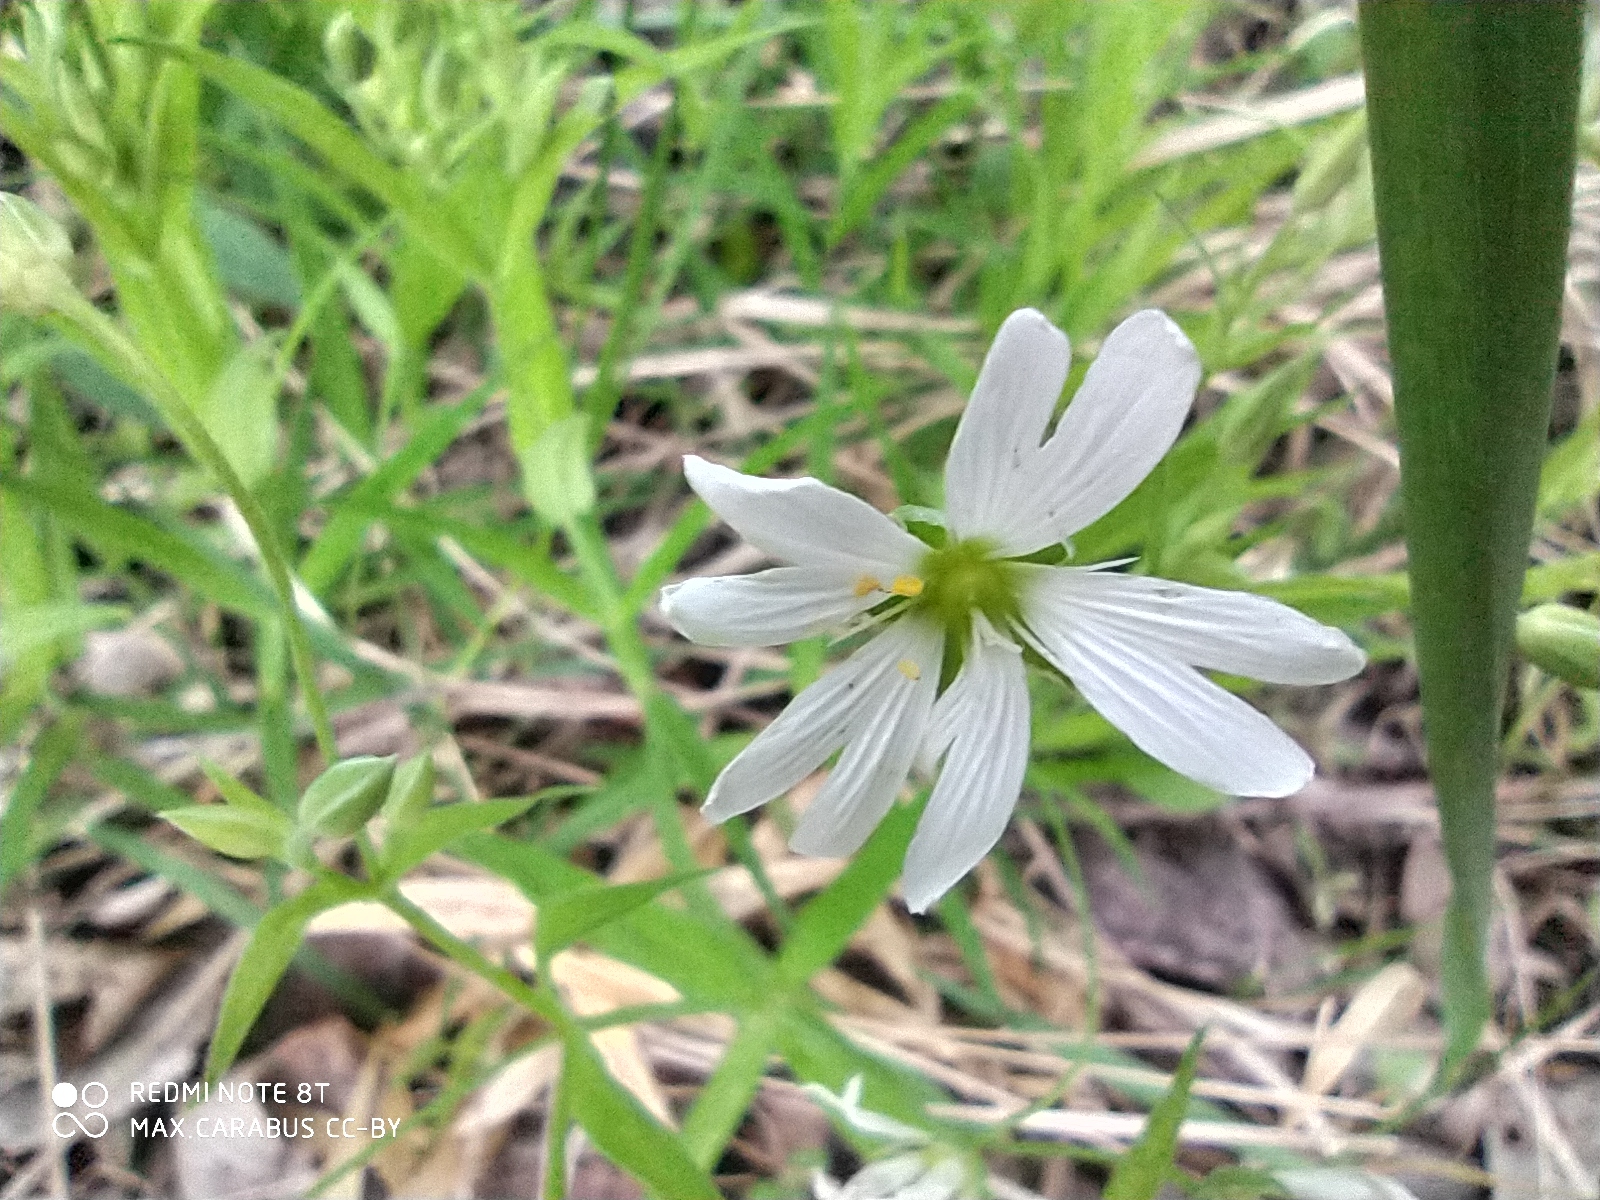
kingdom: Plantae
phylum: Tracheophyta
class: Magnoliopsida
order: Caryophyllales
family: Caryophyllaceae
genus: Rabelera
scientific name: Rabelera holostea
